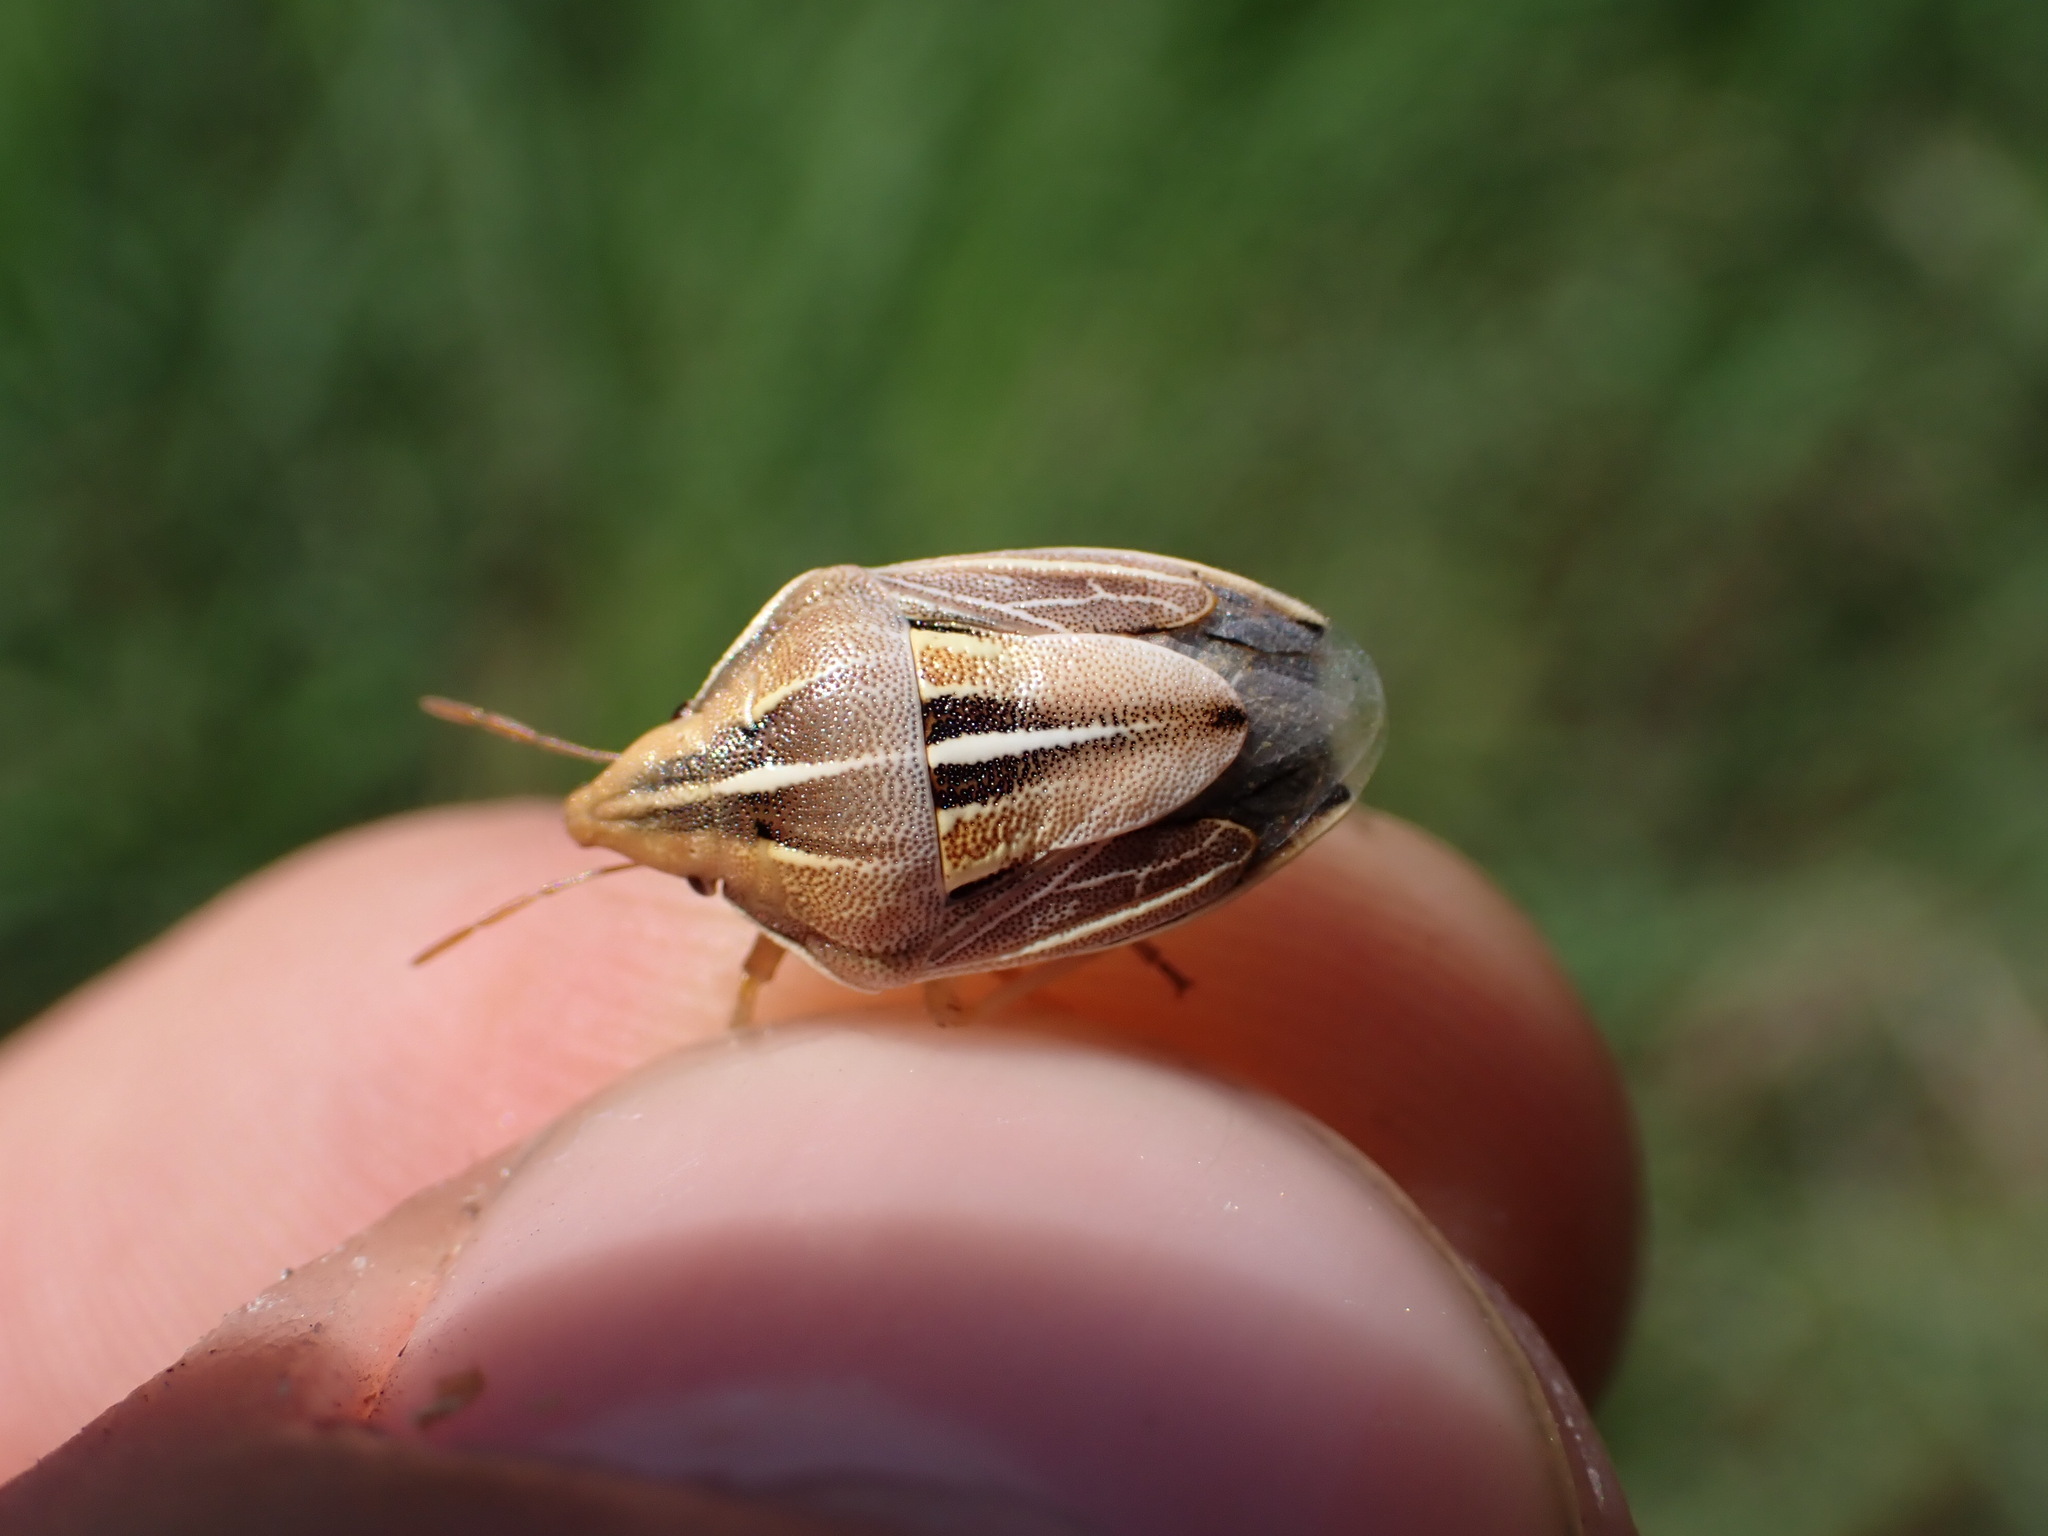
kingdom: Animalia
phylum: Arthropoda
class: Insecta
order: Hemiptera
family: Pentatomidae
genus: Aelia
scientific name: Aelia rostrata
